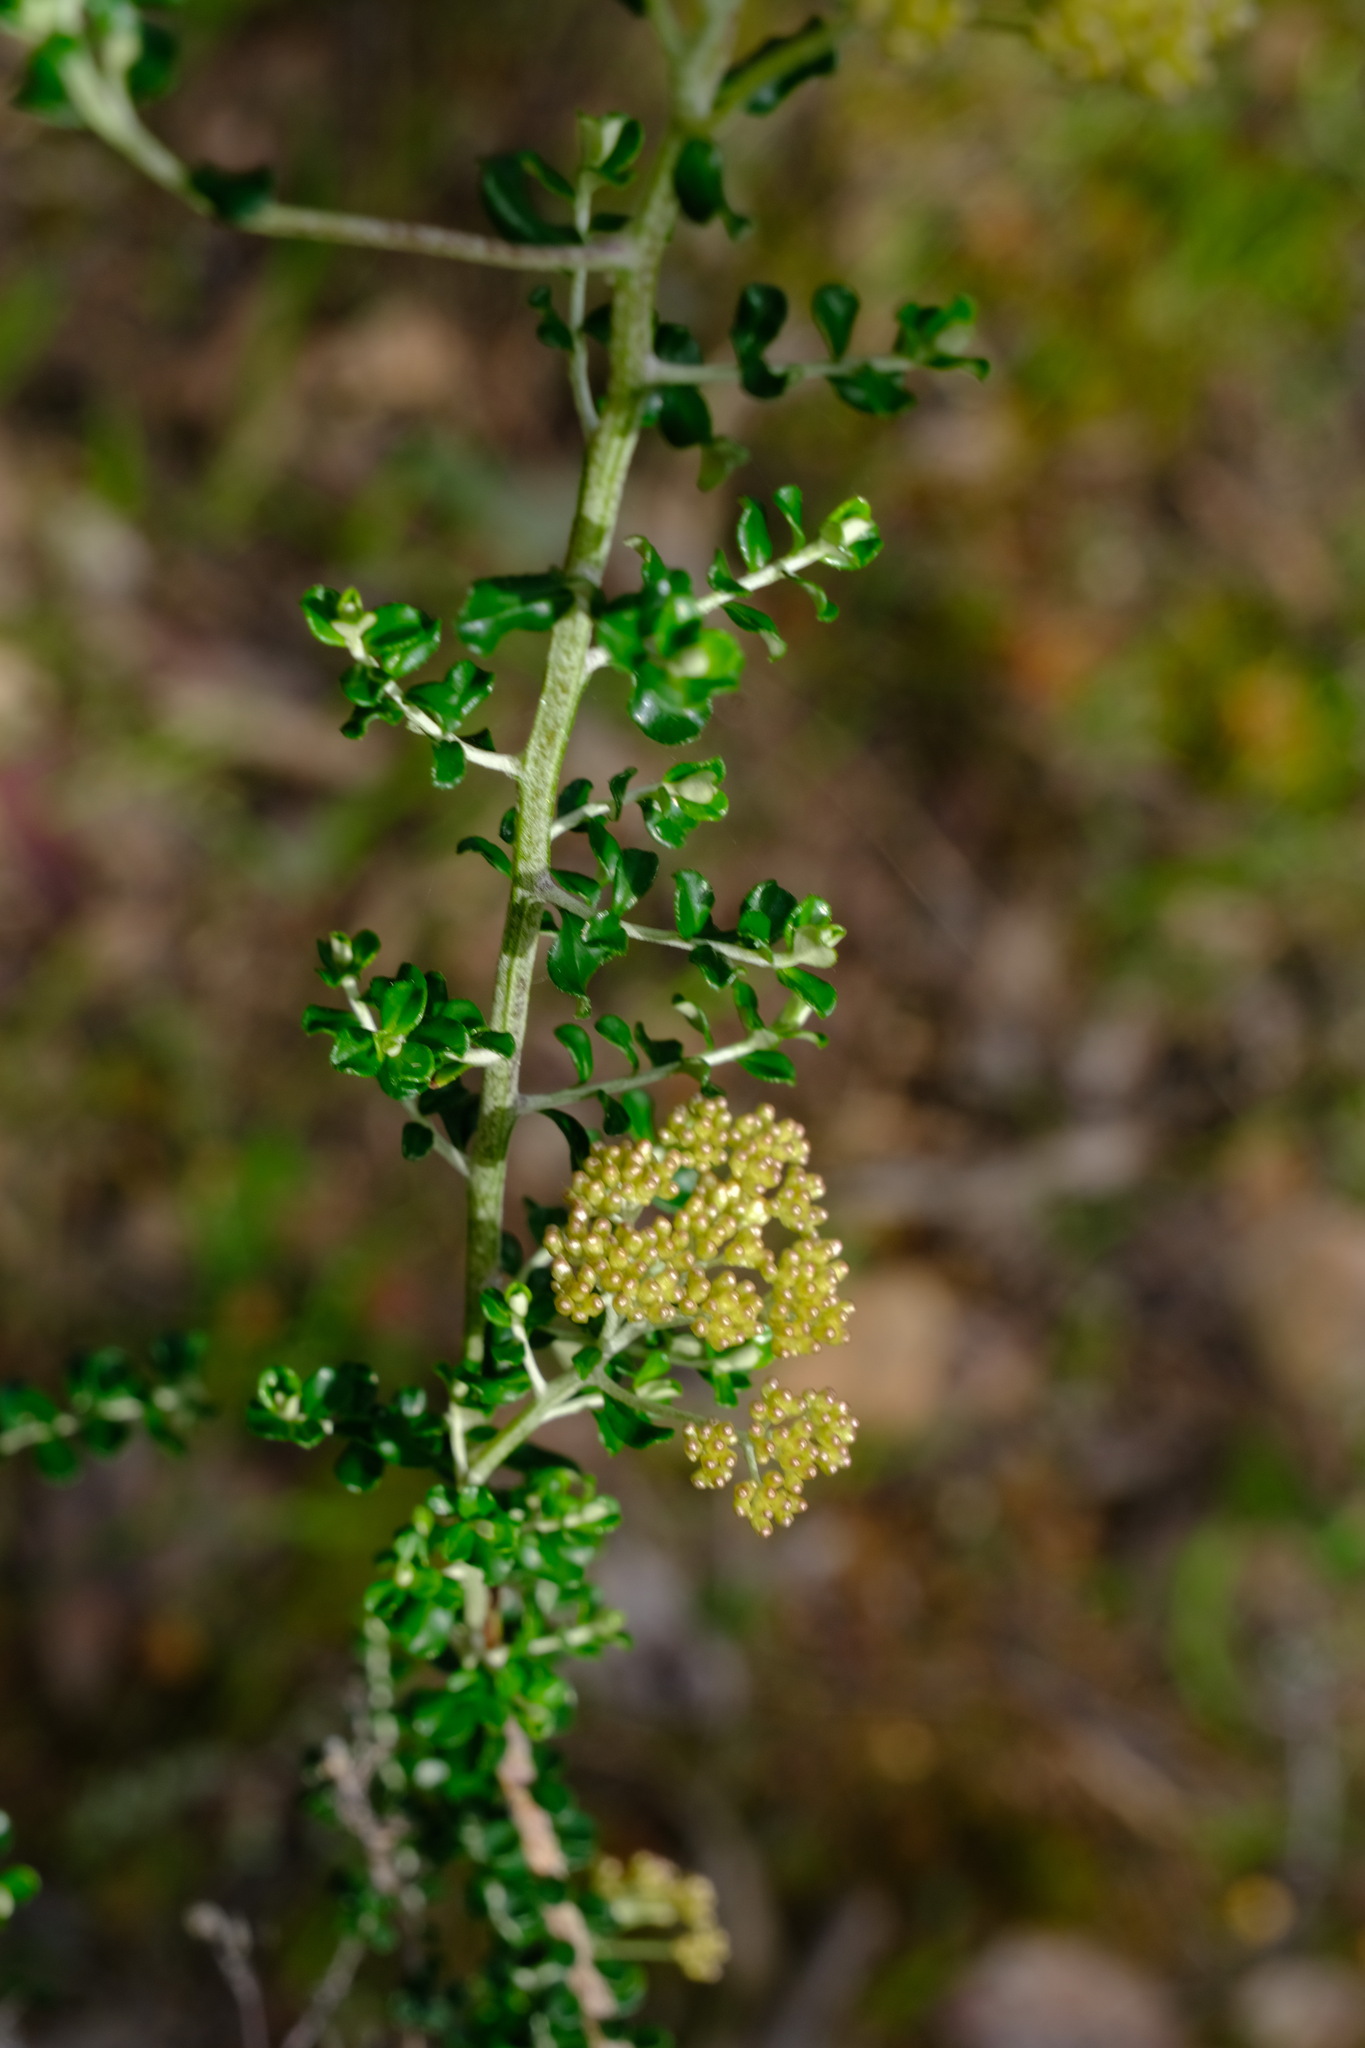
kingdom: Plantae
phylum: Tracheophyta
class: Magnoliopsida
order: Asterales
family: Asteraceae
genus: Ozothamnus
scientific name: Ozothamnus obcordatus
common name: Grey everlasting
